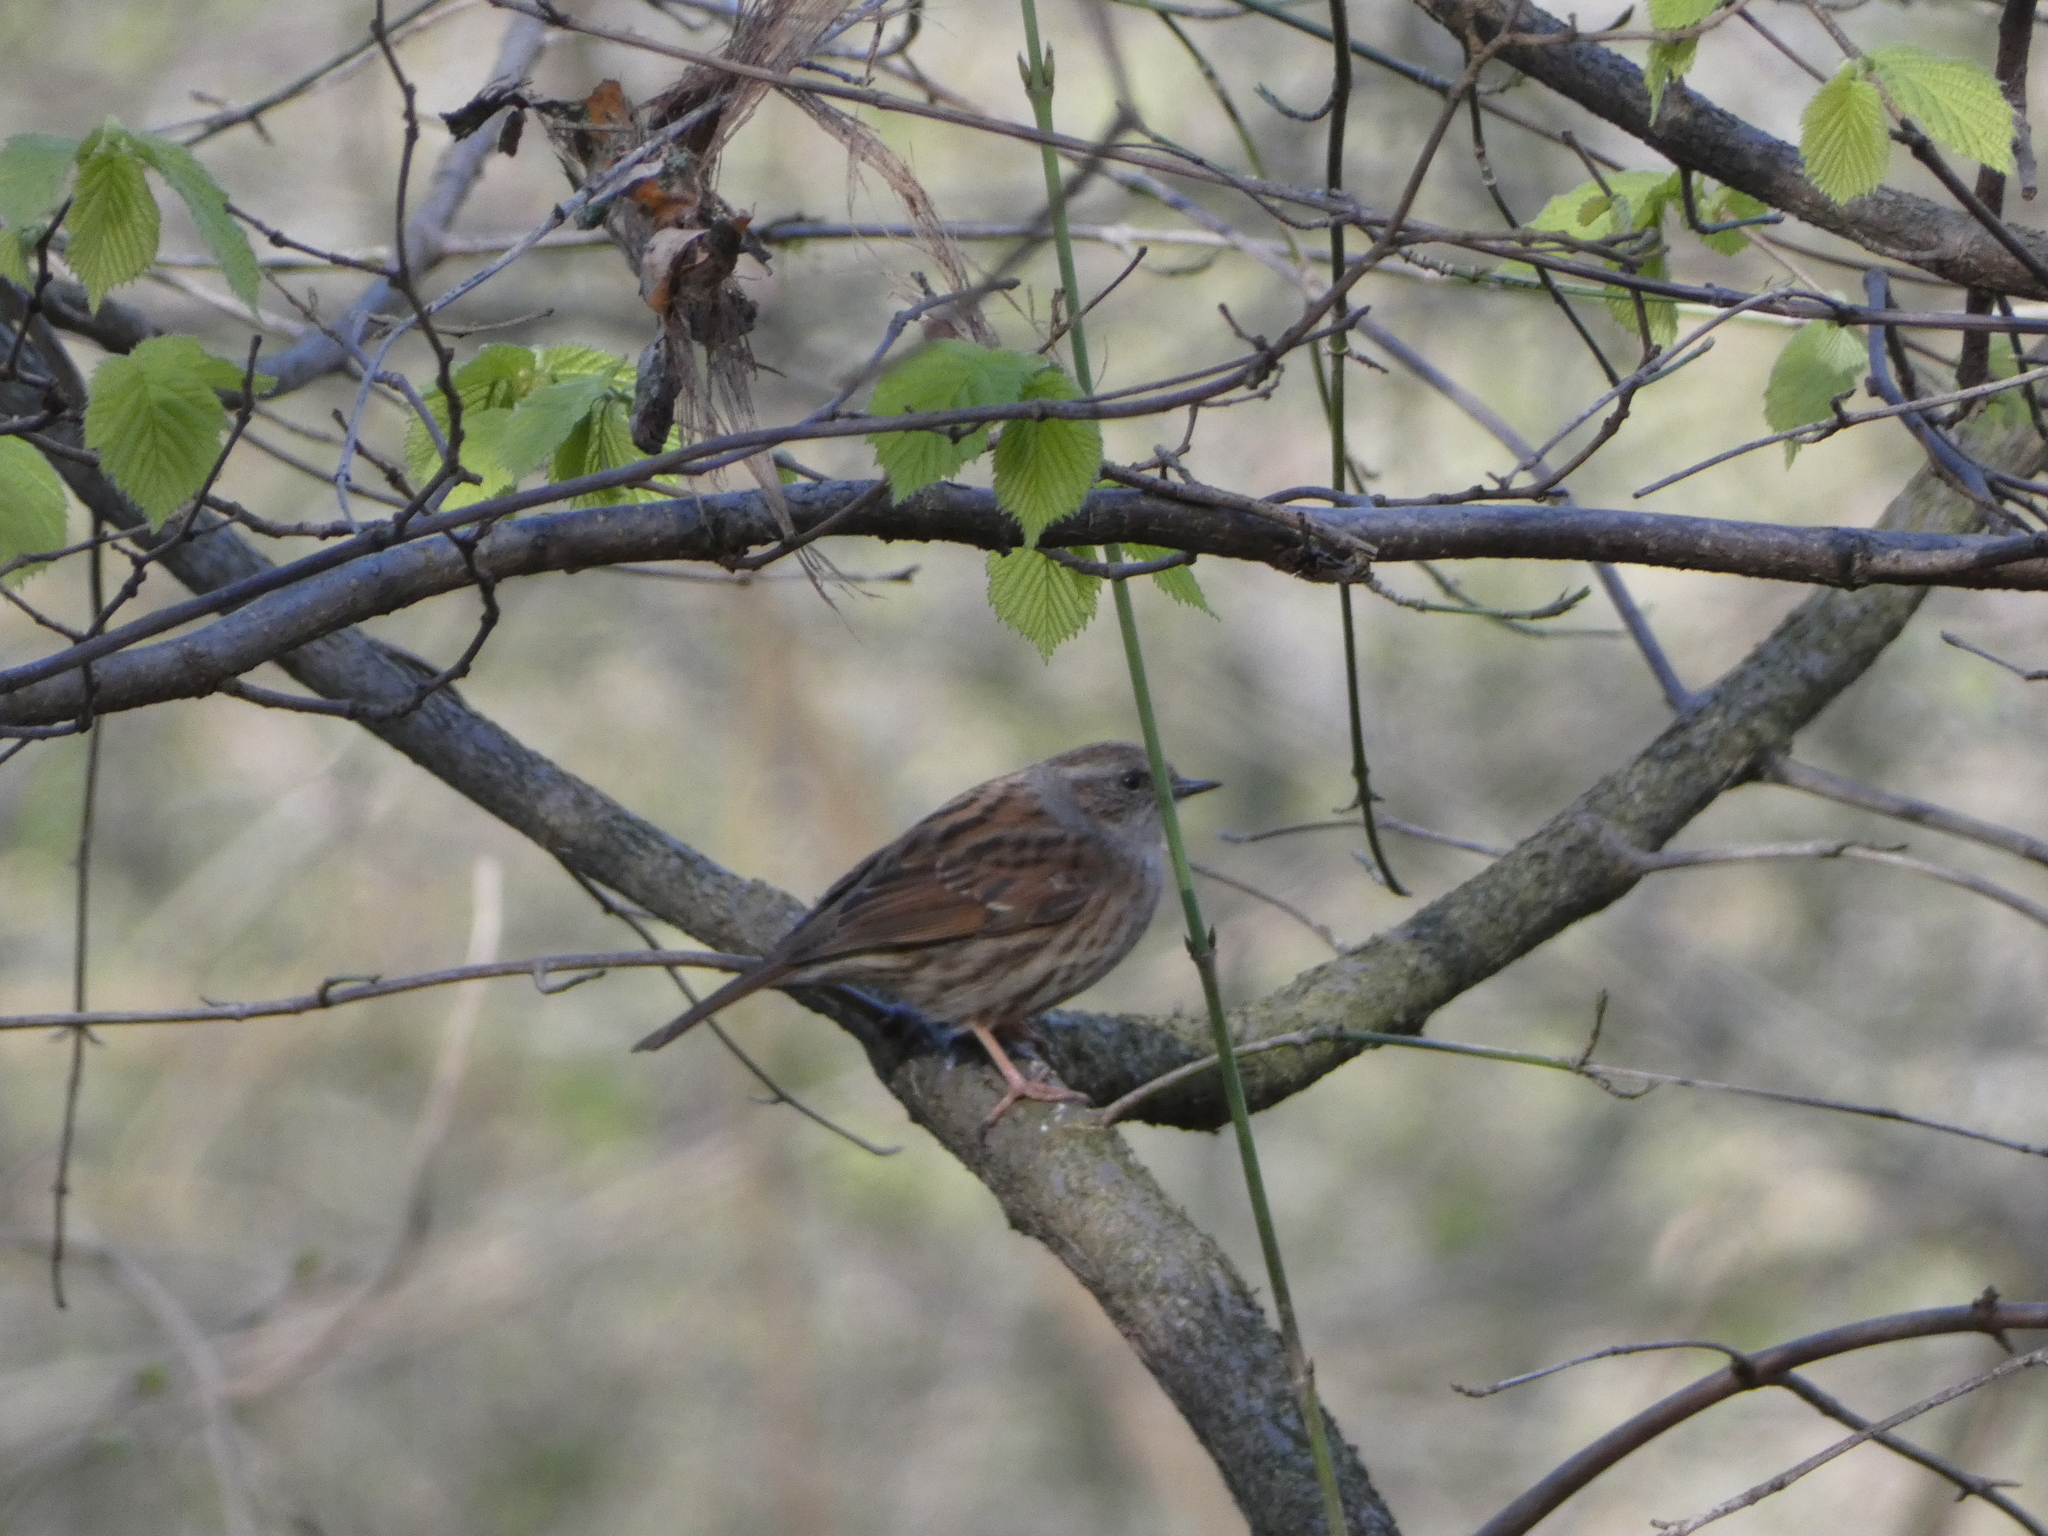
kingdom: Animalia
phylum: Chordata
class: Aves
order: Passeriformes
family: Prunellidae
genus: Prunella
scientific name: Prunella modularis
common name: Dunnock
